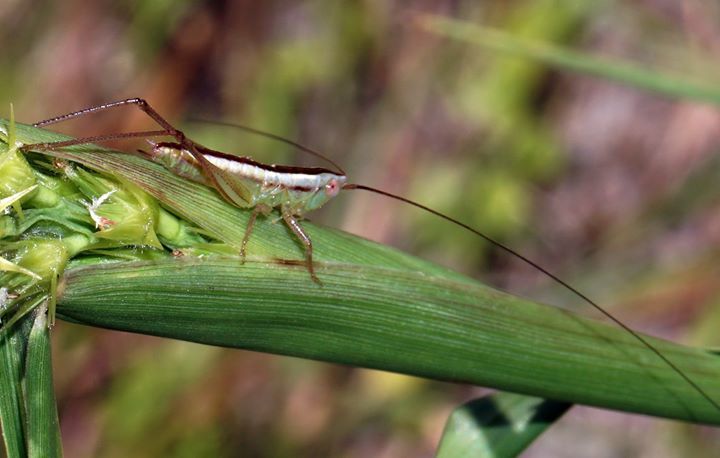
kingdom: Animalia
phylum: Arthropoda
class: Insecta
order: Orthoptera
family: Tettigoniidae
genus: Conocephalus
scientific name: Conocephalus gracillimus
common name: Graceful meadow katydid
